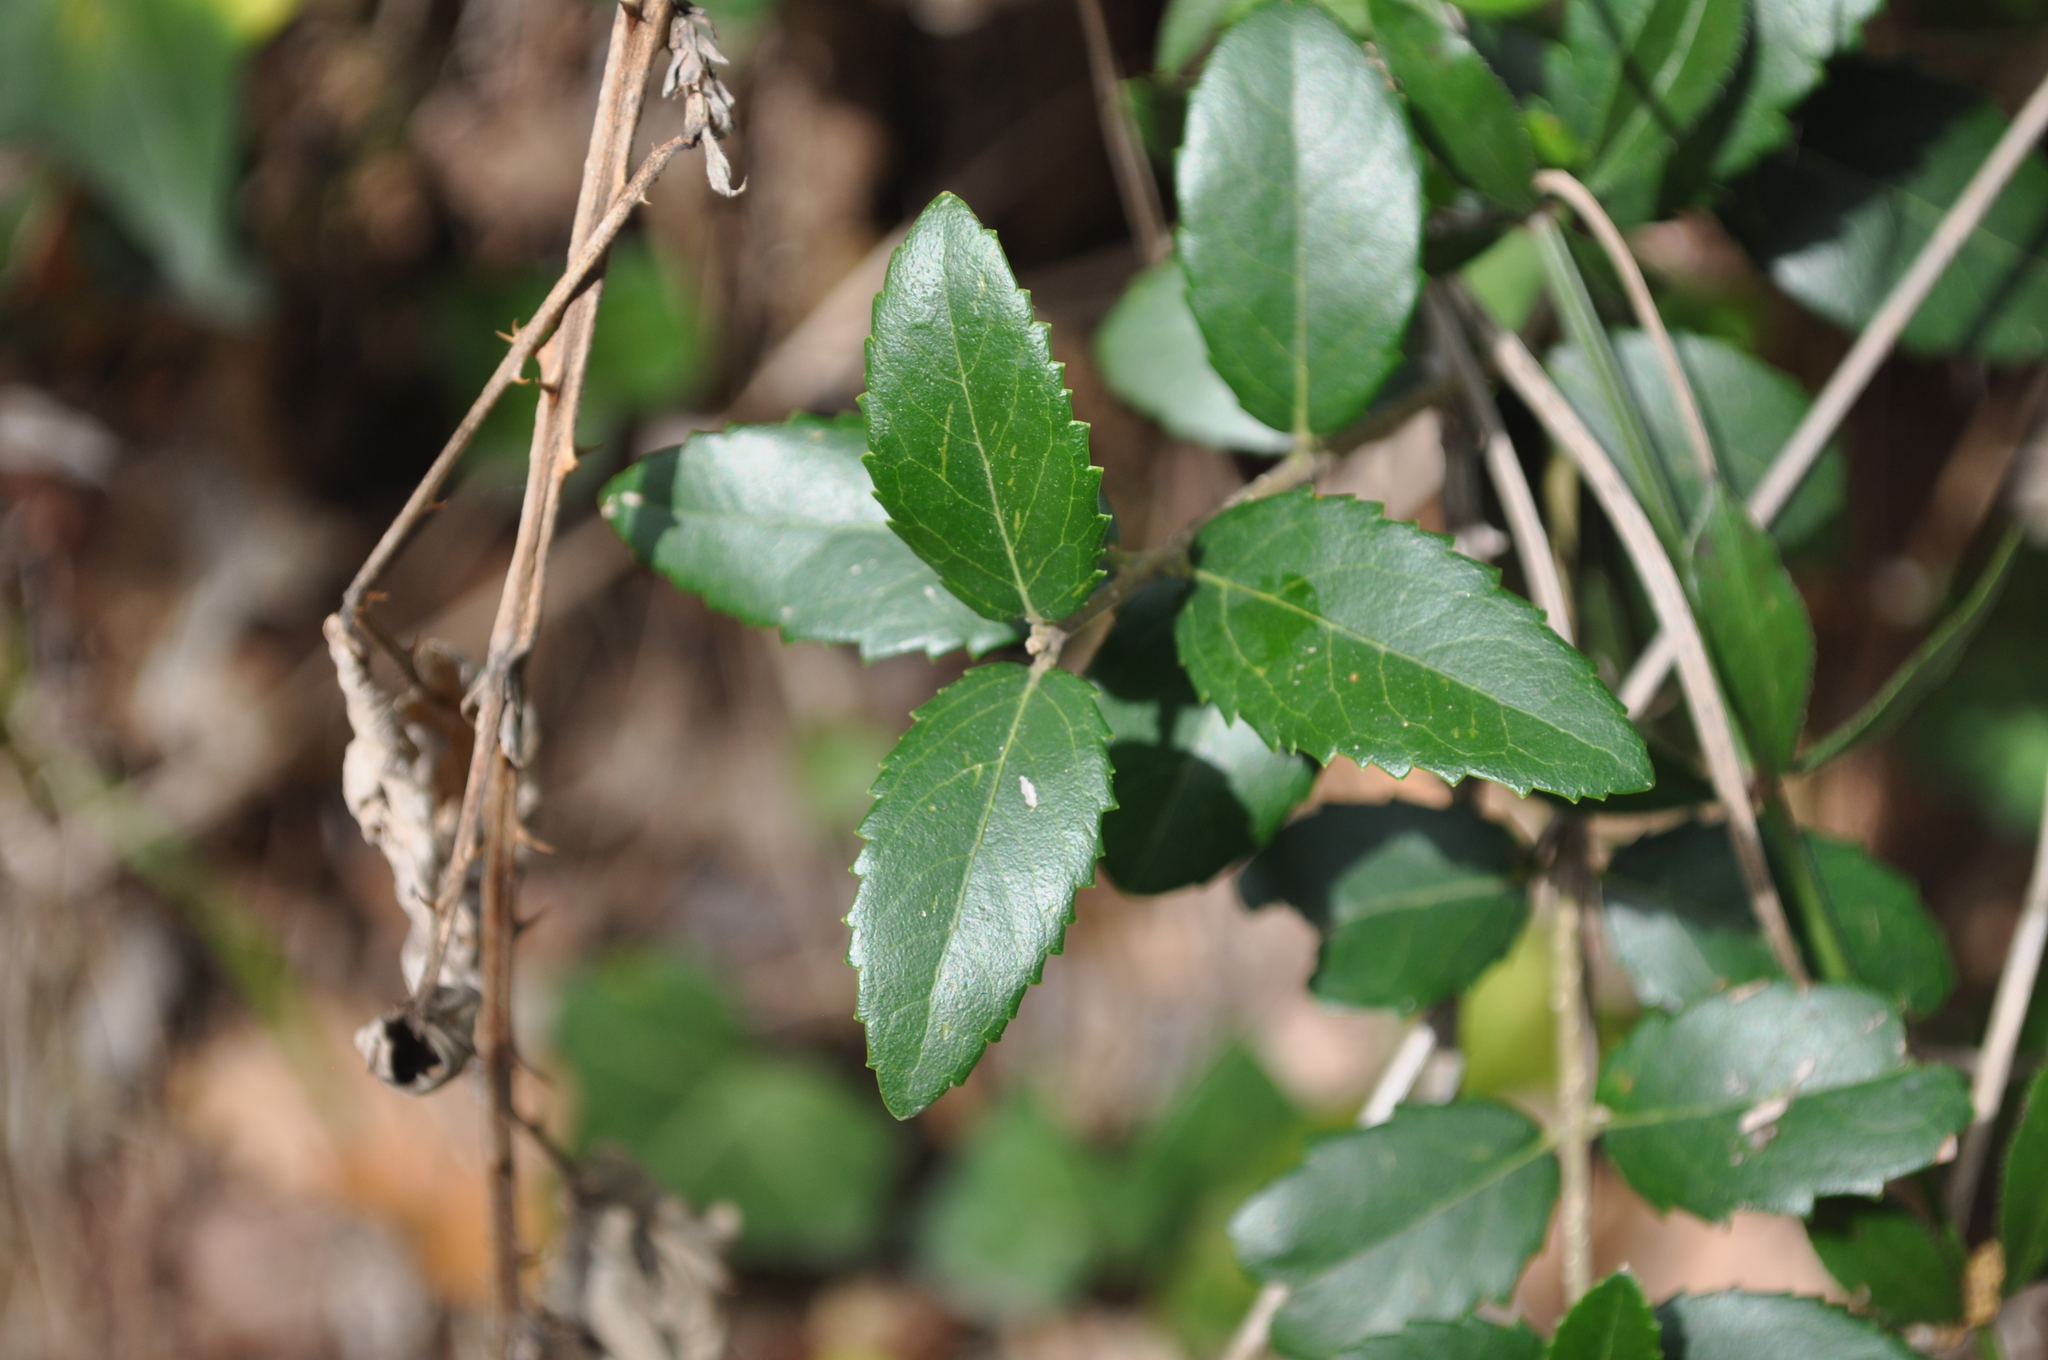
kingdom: Plantae
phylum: Tracheophyta
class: Magnoliopsida
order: Lamiales
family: Oleaceae
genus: Phillyrea
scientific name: Phillyrea latifolia
